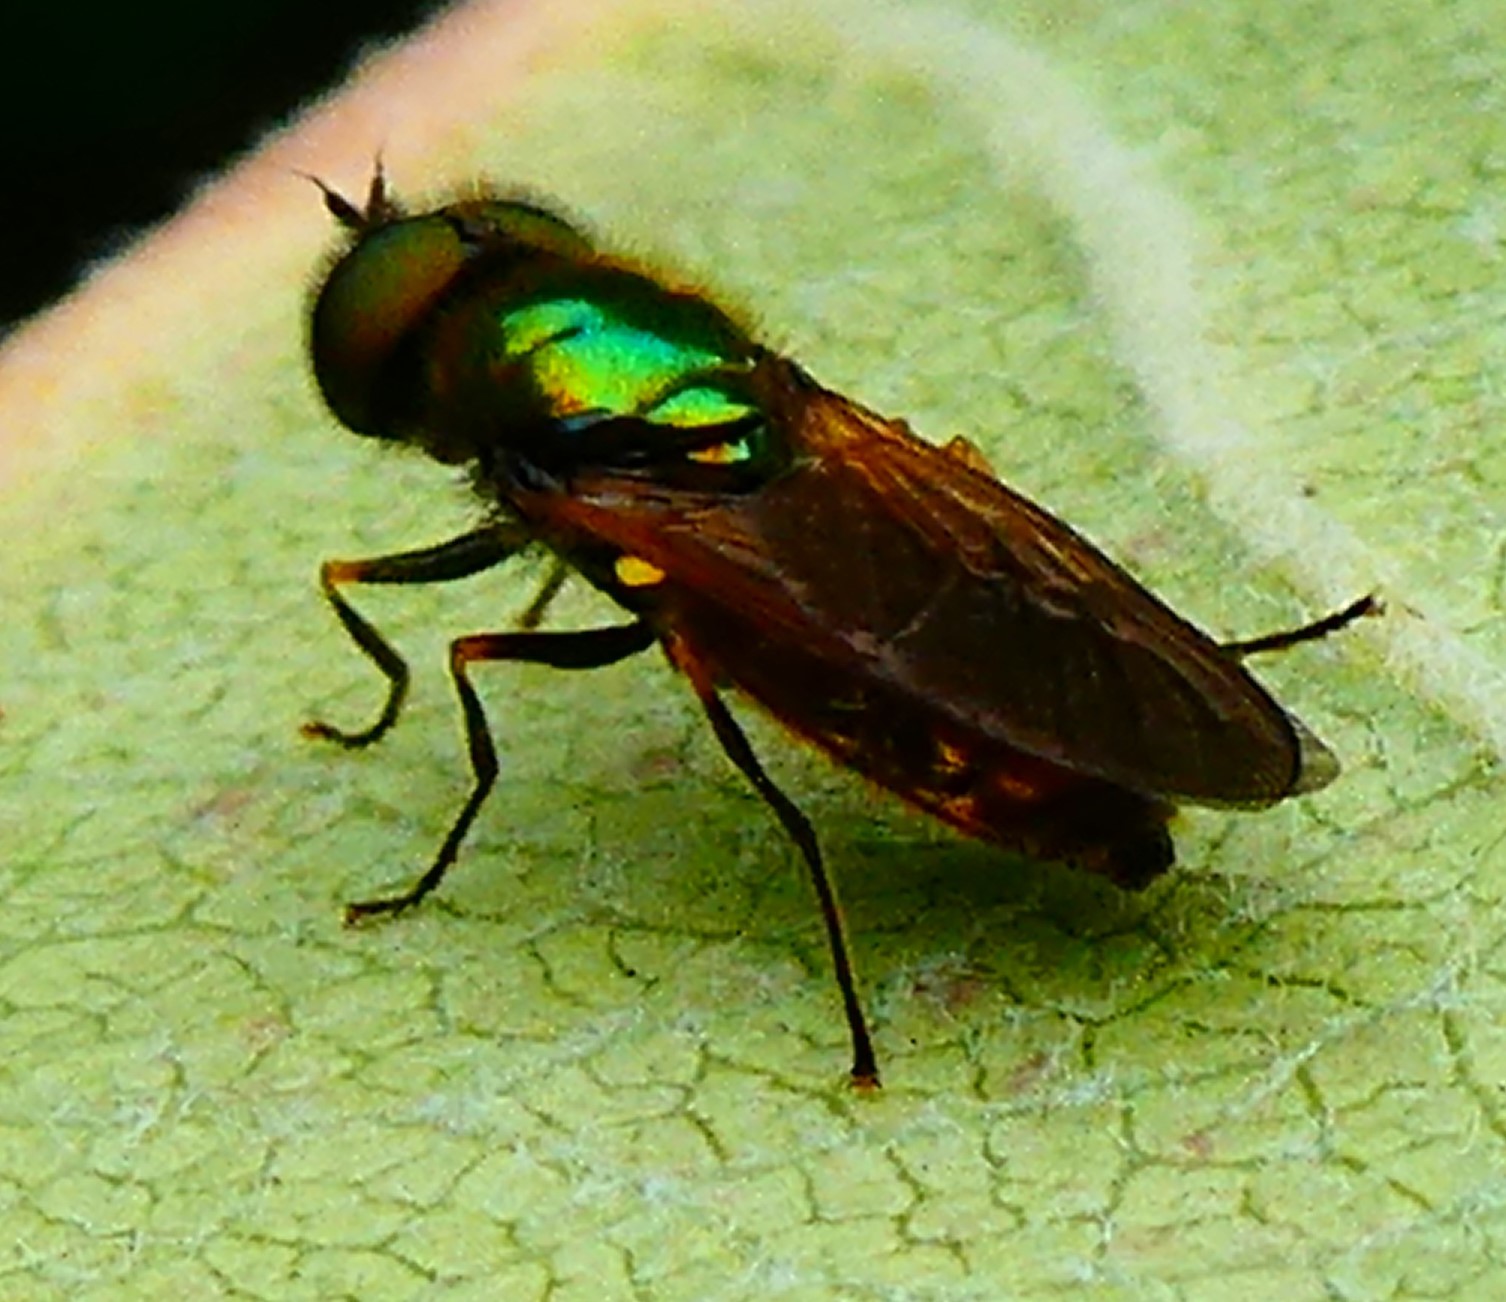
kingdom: Animalia
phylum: Arthropoda
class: Insecta
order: Diptera
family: Stratiomyidae
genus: Chloromyia
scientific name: Chloromyia formosa
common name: Soldier fly
